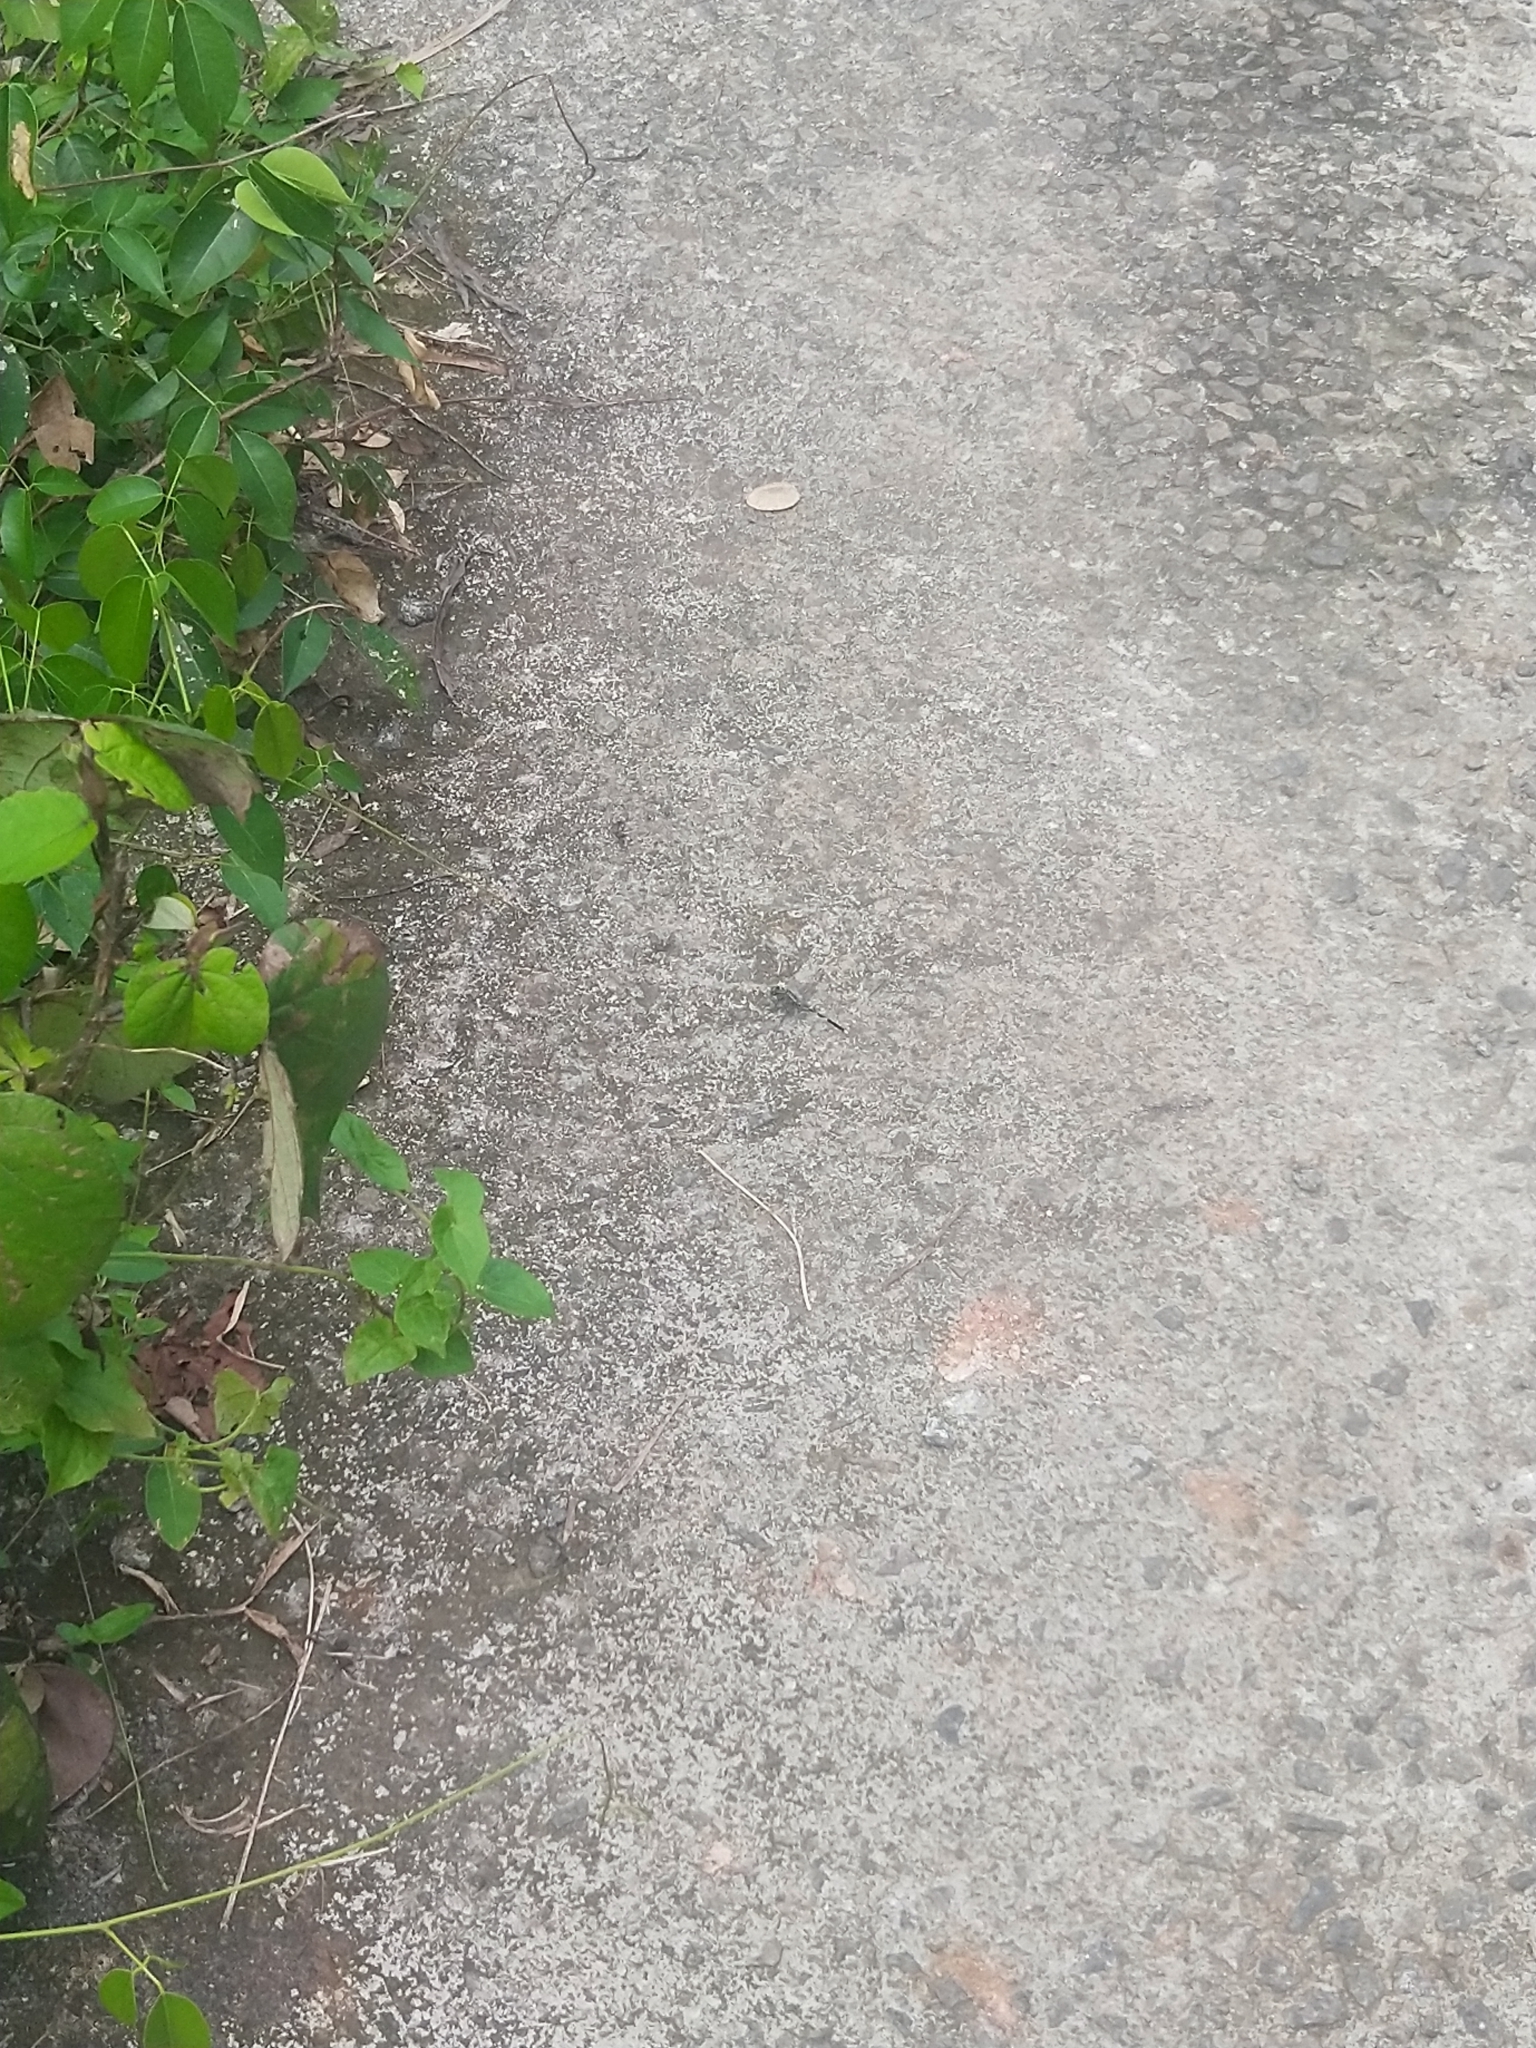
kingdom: Animalia
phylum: Arthropoda
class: Insecta
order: Odonata
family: Libellulidae
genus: Orthetrum
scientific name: Orthetrum sabina
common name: Slender skimmer
